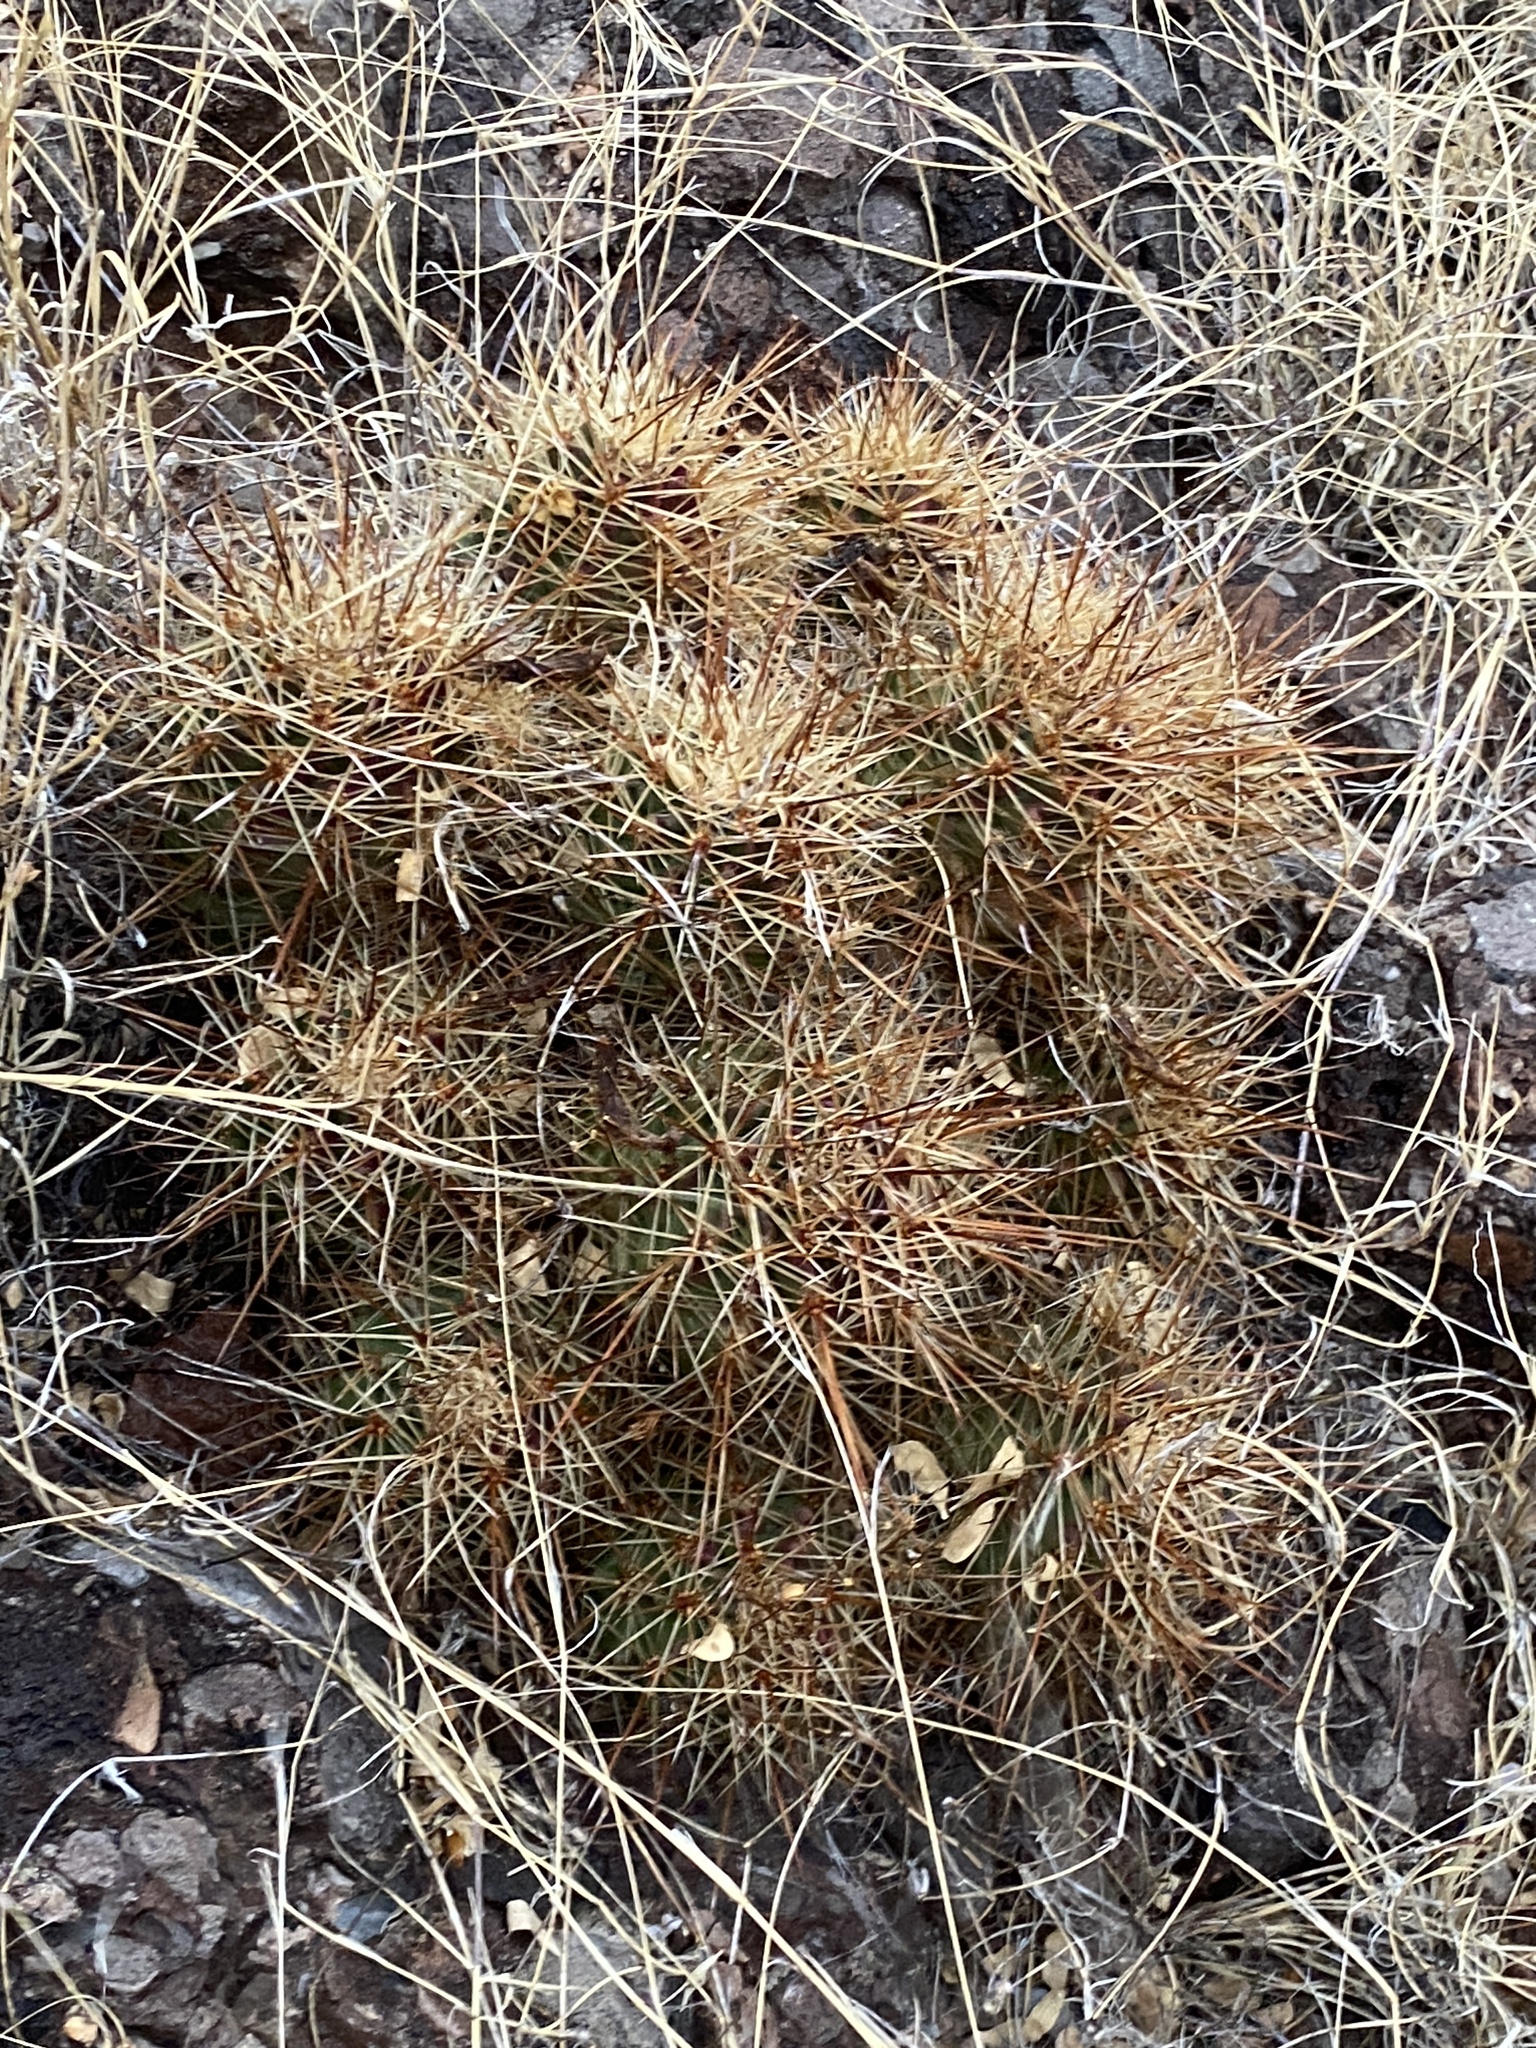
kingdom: Plantae
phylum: Tracheophyta
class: Magnoliopsida
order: Caryophyllales
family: Cactaceae
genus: Echinocereus
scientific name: Echinocereus coccineus
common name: Scarlet hedgehog cactus
